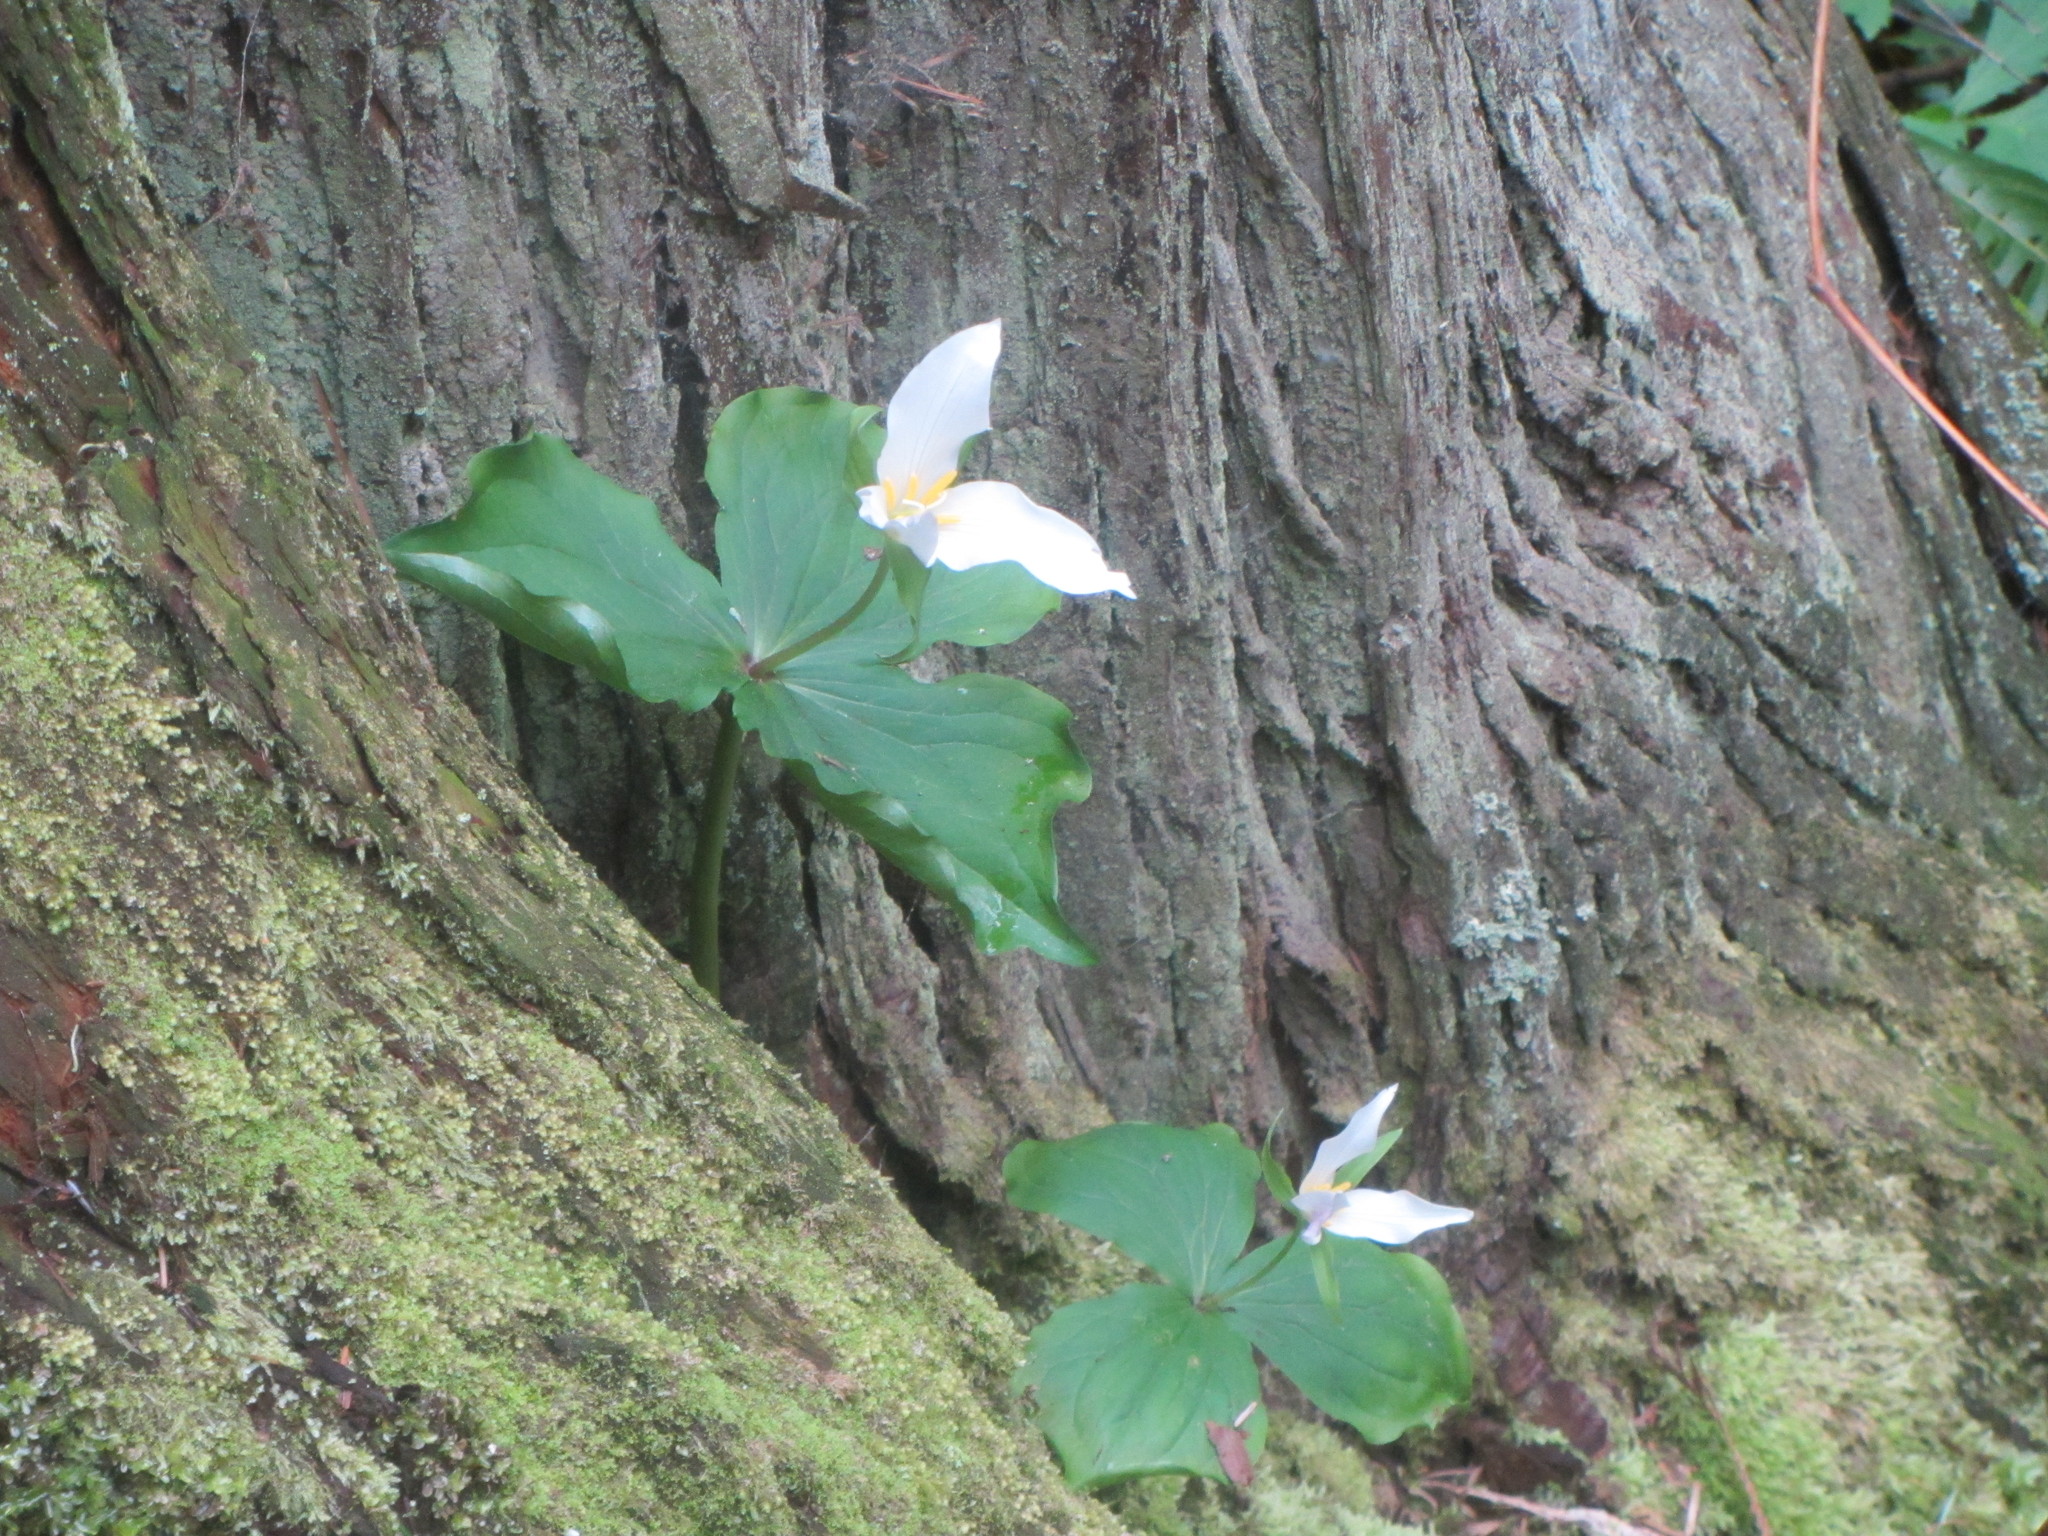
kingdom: Plantae
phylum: Tracheophyta
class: Liliopsida
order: Liliales
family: Melanthiaceae
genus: Trillium
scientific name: Trillium ovatum
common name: Pacific trillium
